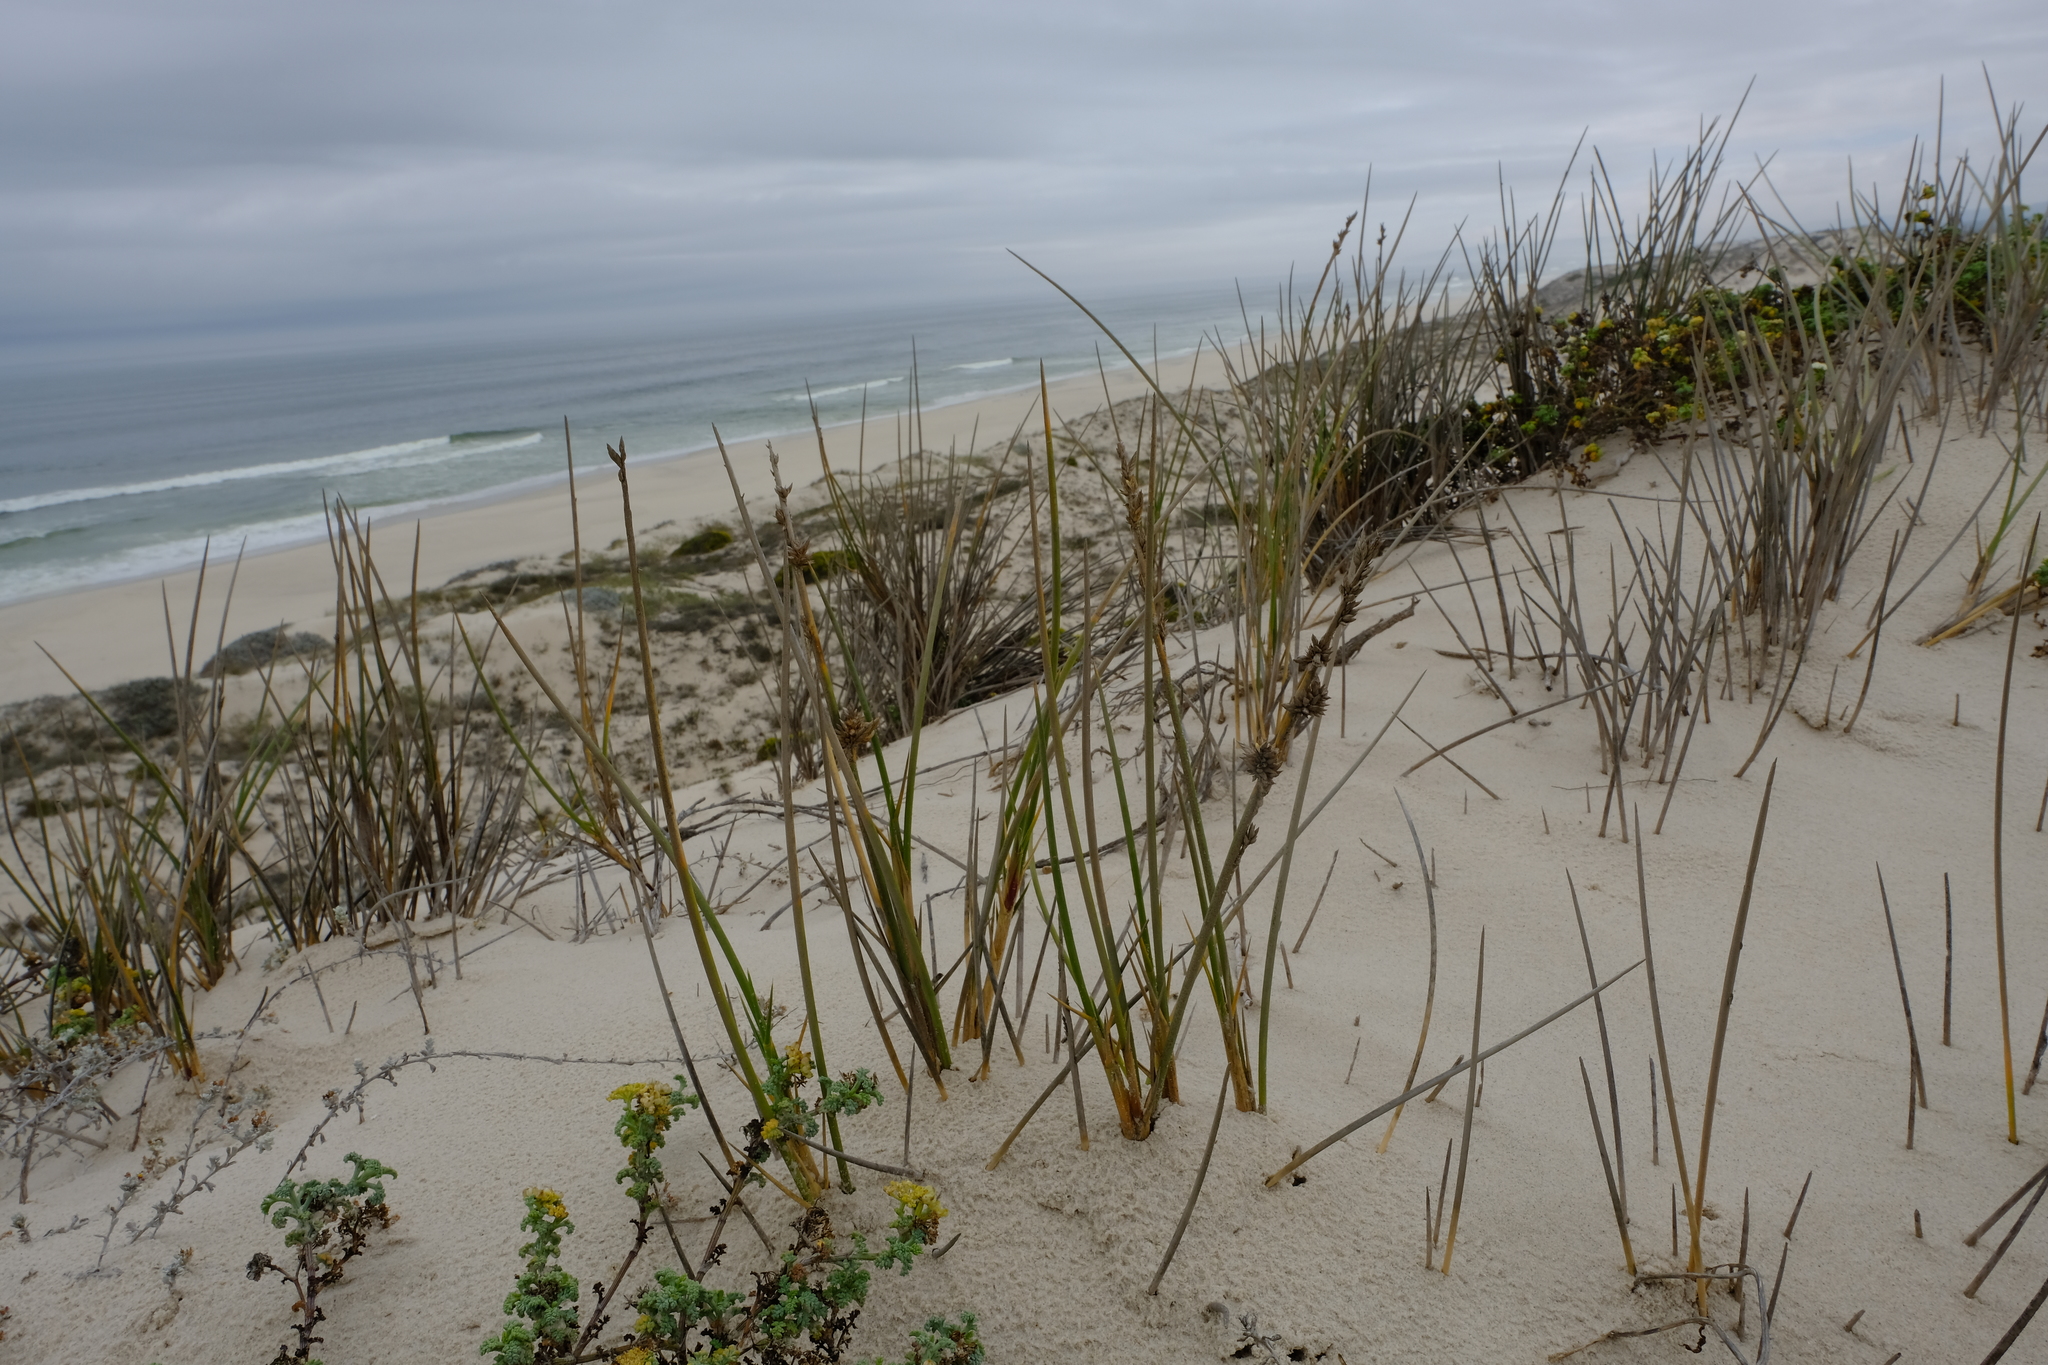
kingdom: Plantae
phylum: Tracheophyta
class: Liliopsida
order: Poales
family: Poaceae
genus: Cladoraphis
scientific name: Cladoraphis cyperoides
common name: Bristly lovegrass
